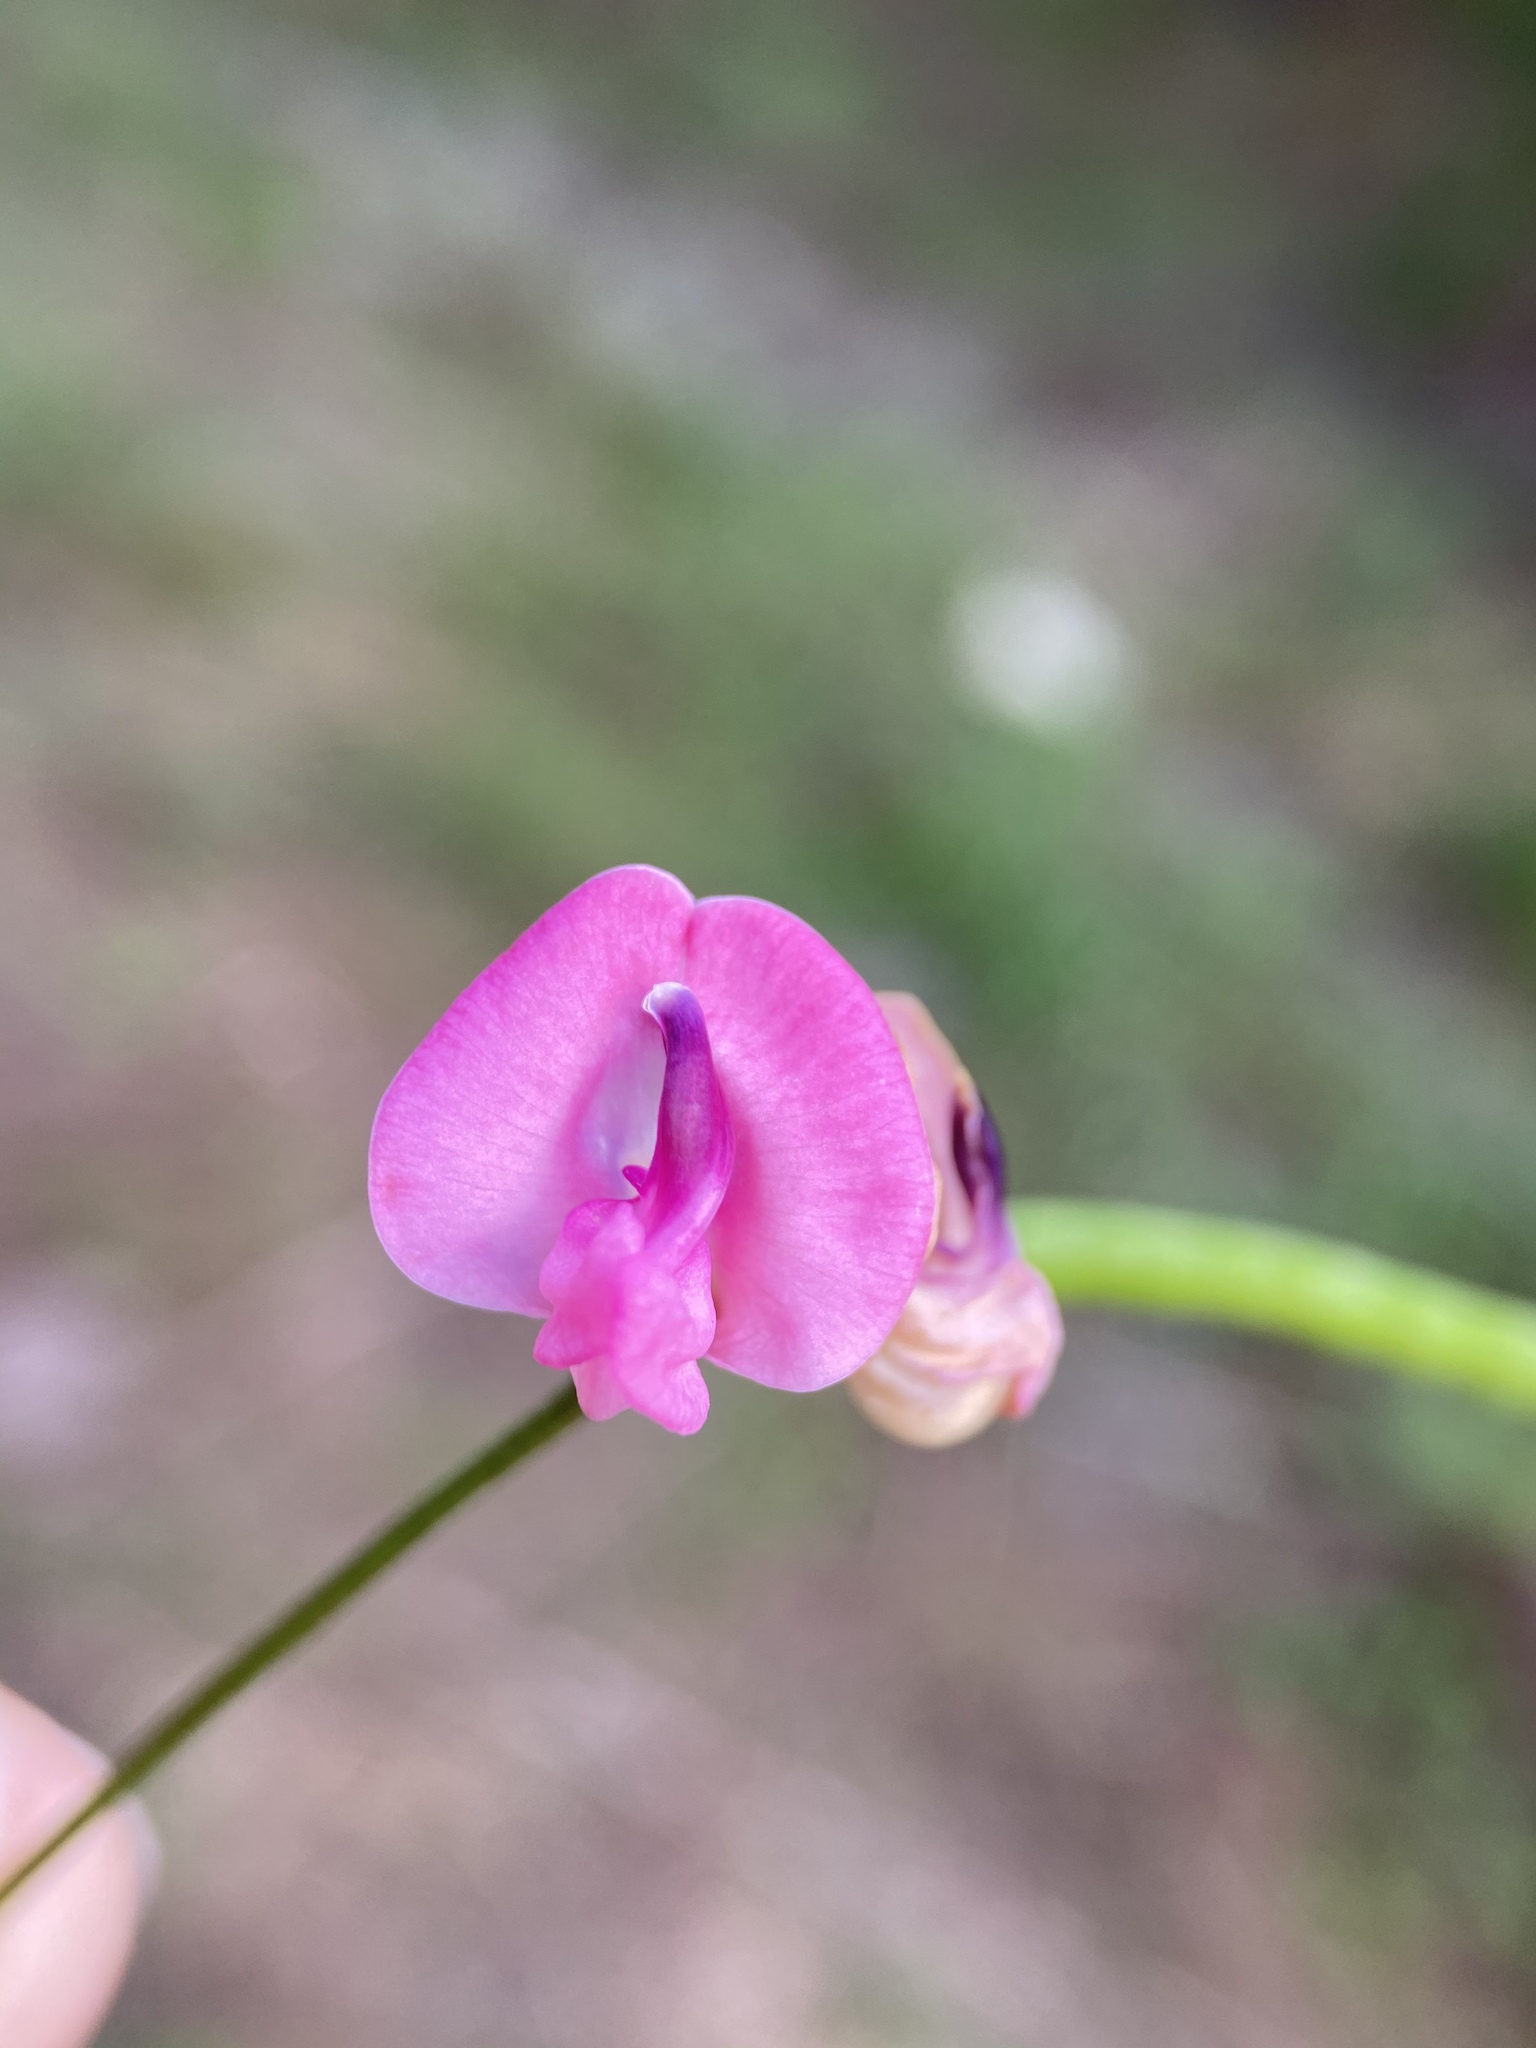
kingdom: Plantae
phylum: Tracheophyta
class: Magnoliopsida
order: Fabales
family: Fabaceae
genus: Strophostyles
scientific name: Strophostyles umbellata
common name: Perennial wild bean
